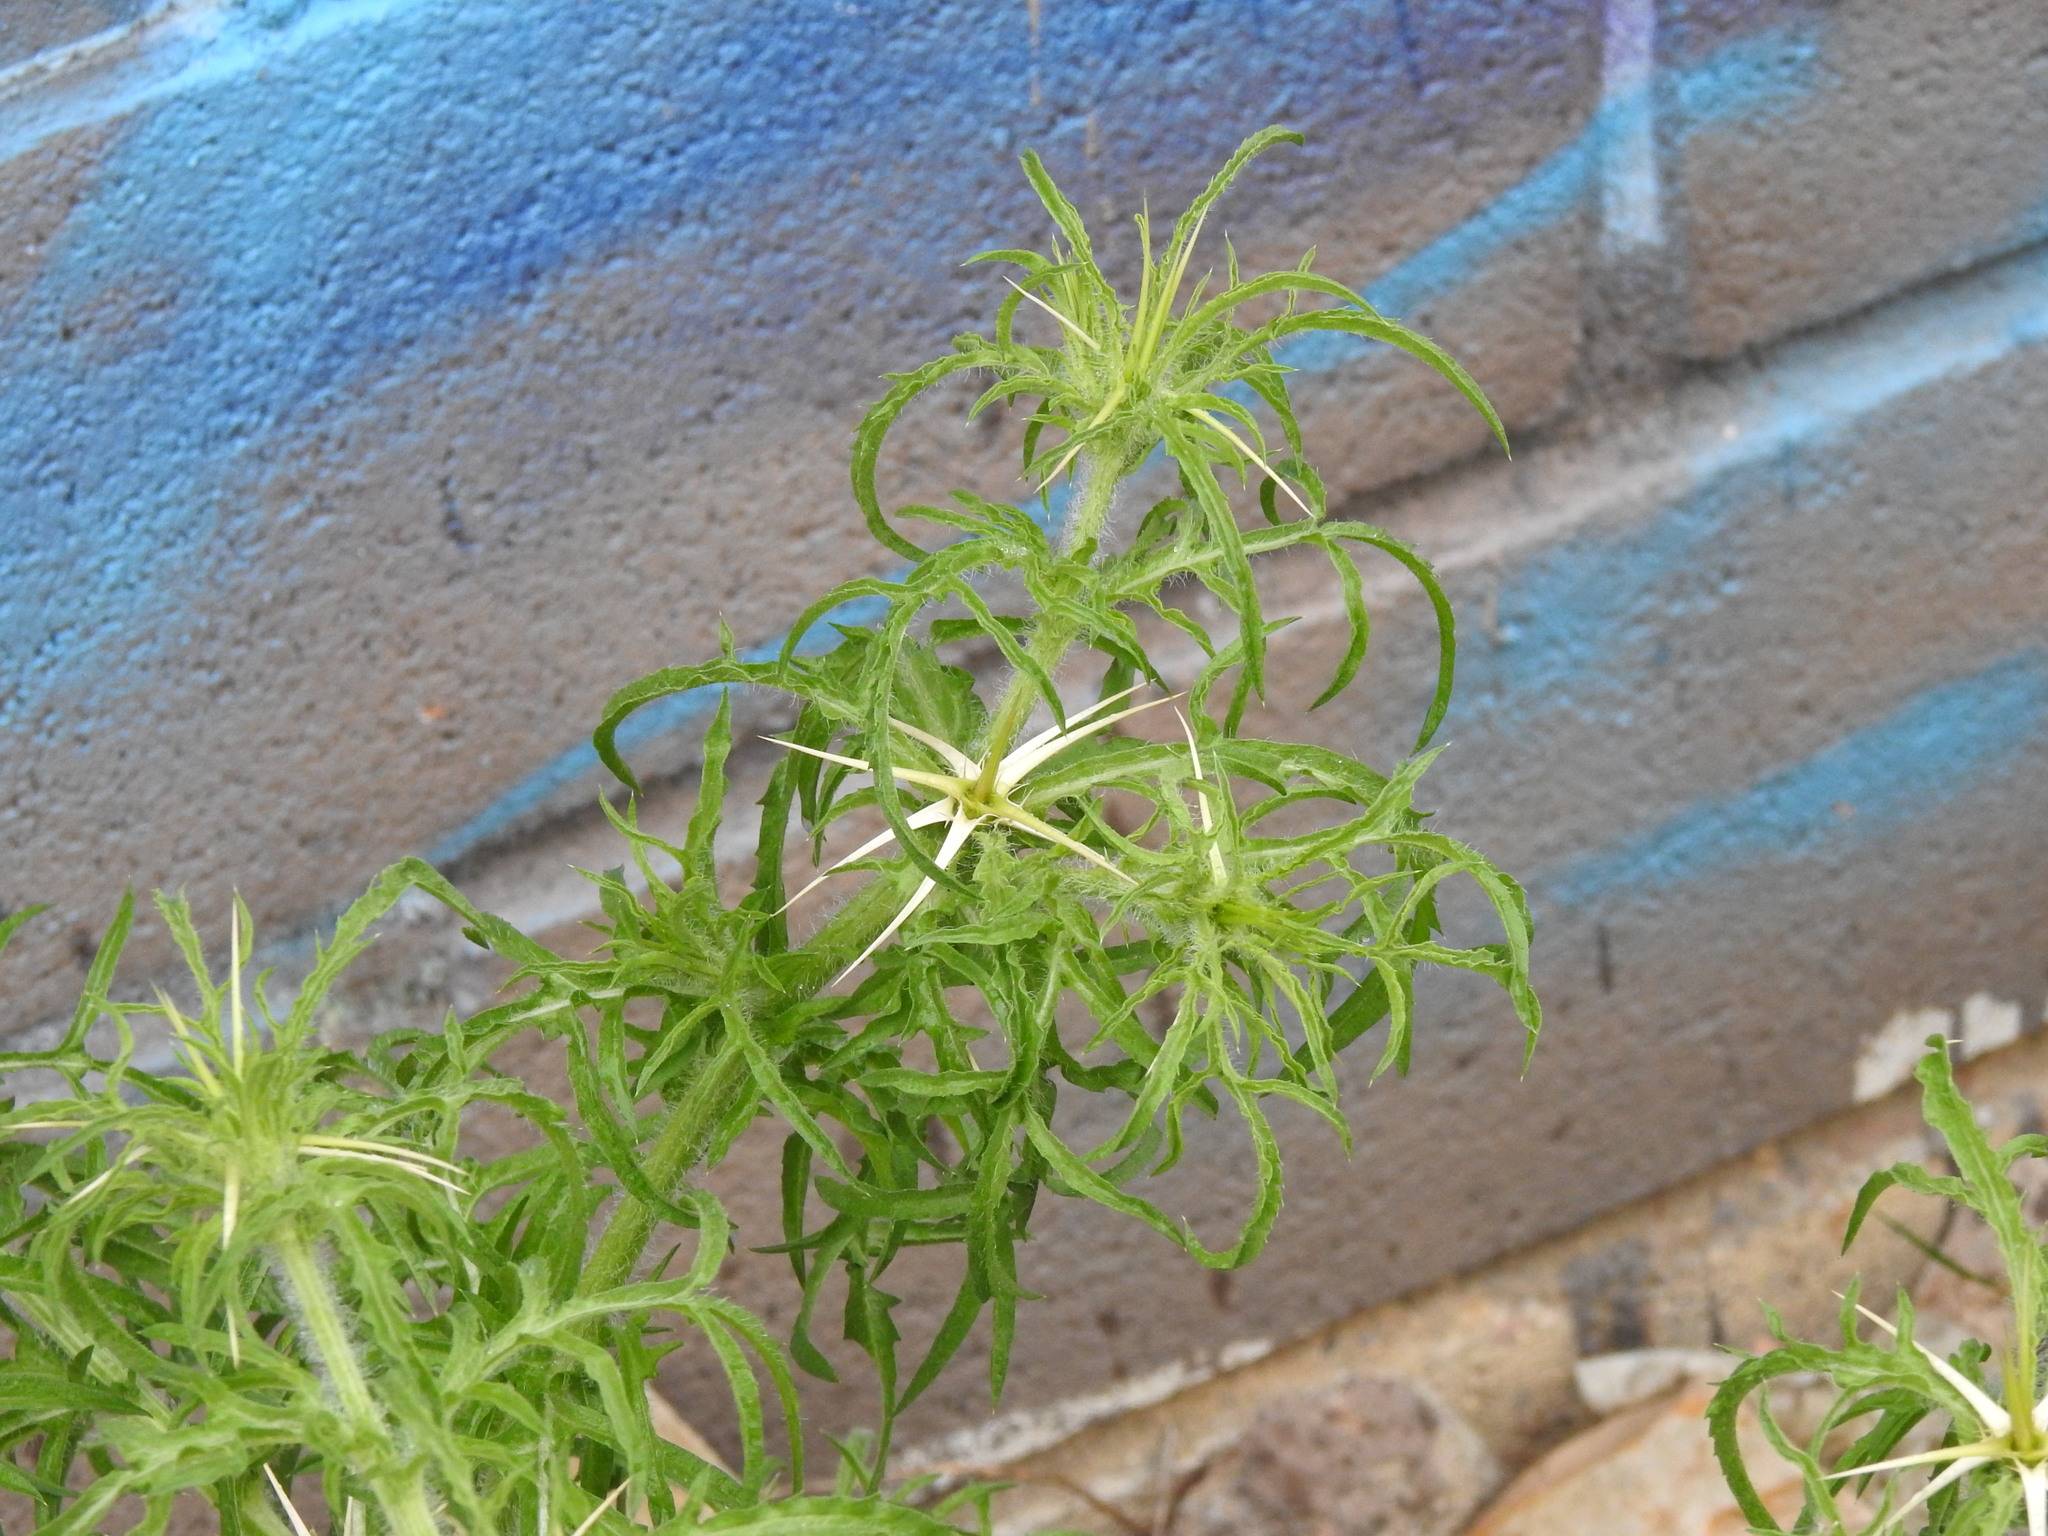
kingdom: Plantae
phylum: Tracheophyta
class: Magnoliopsida
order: Asterales
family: Asteraceae
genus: Centaurea
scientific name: Centaurea calcitrapa
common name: Red star-thistle
